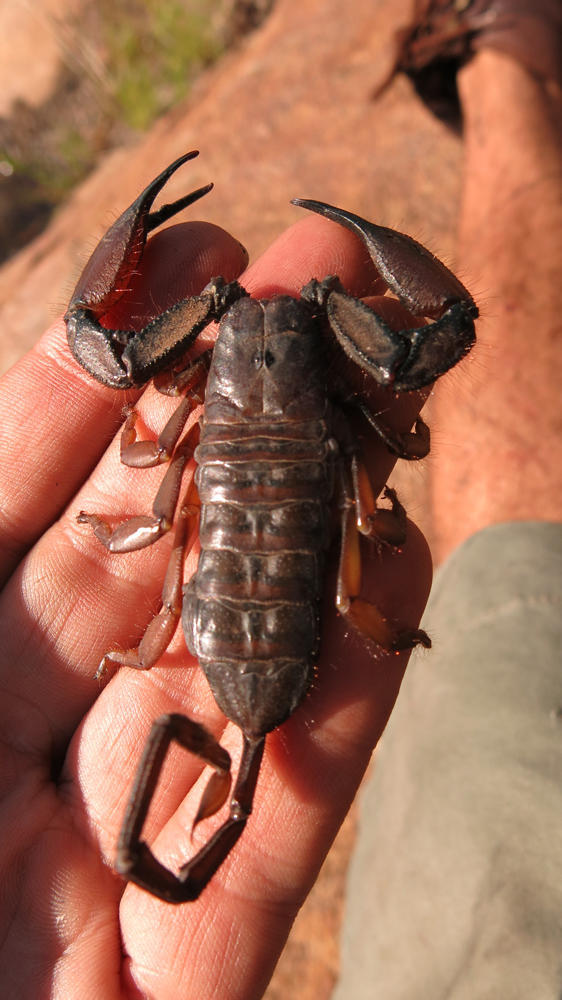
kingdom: Animalia
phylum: Arthropoda
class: Arachnida
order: Scorpiones
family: Hormuridae
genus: Hadogenes
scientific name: Hadogenes gracilis
